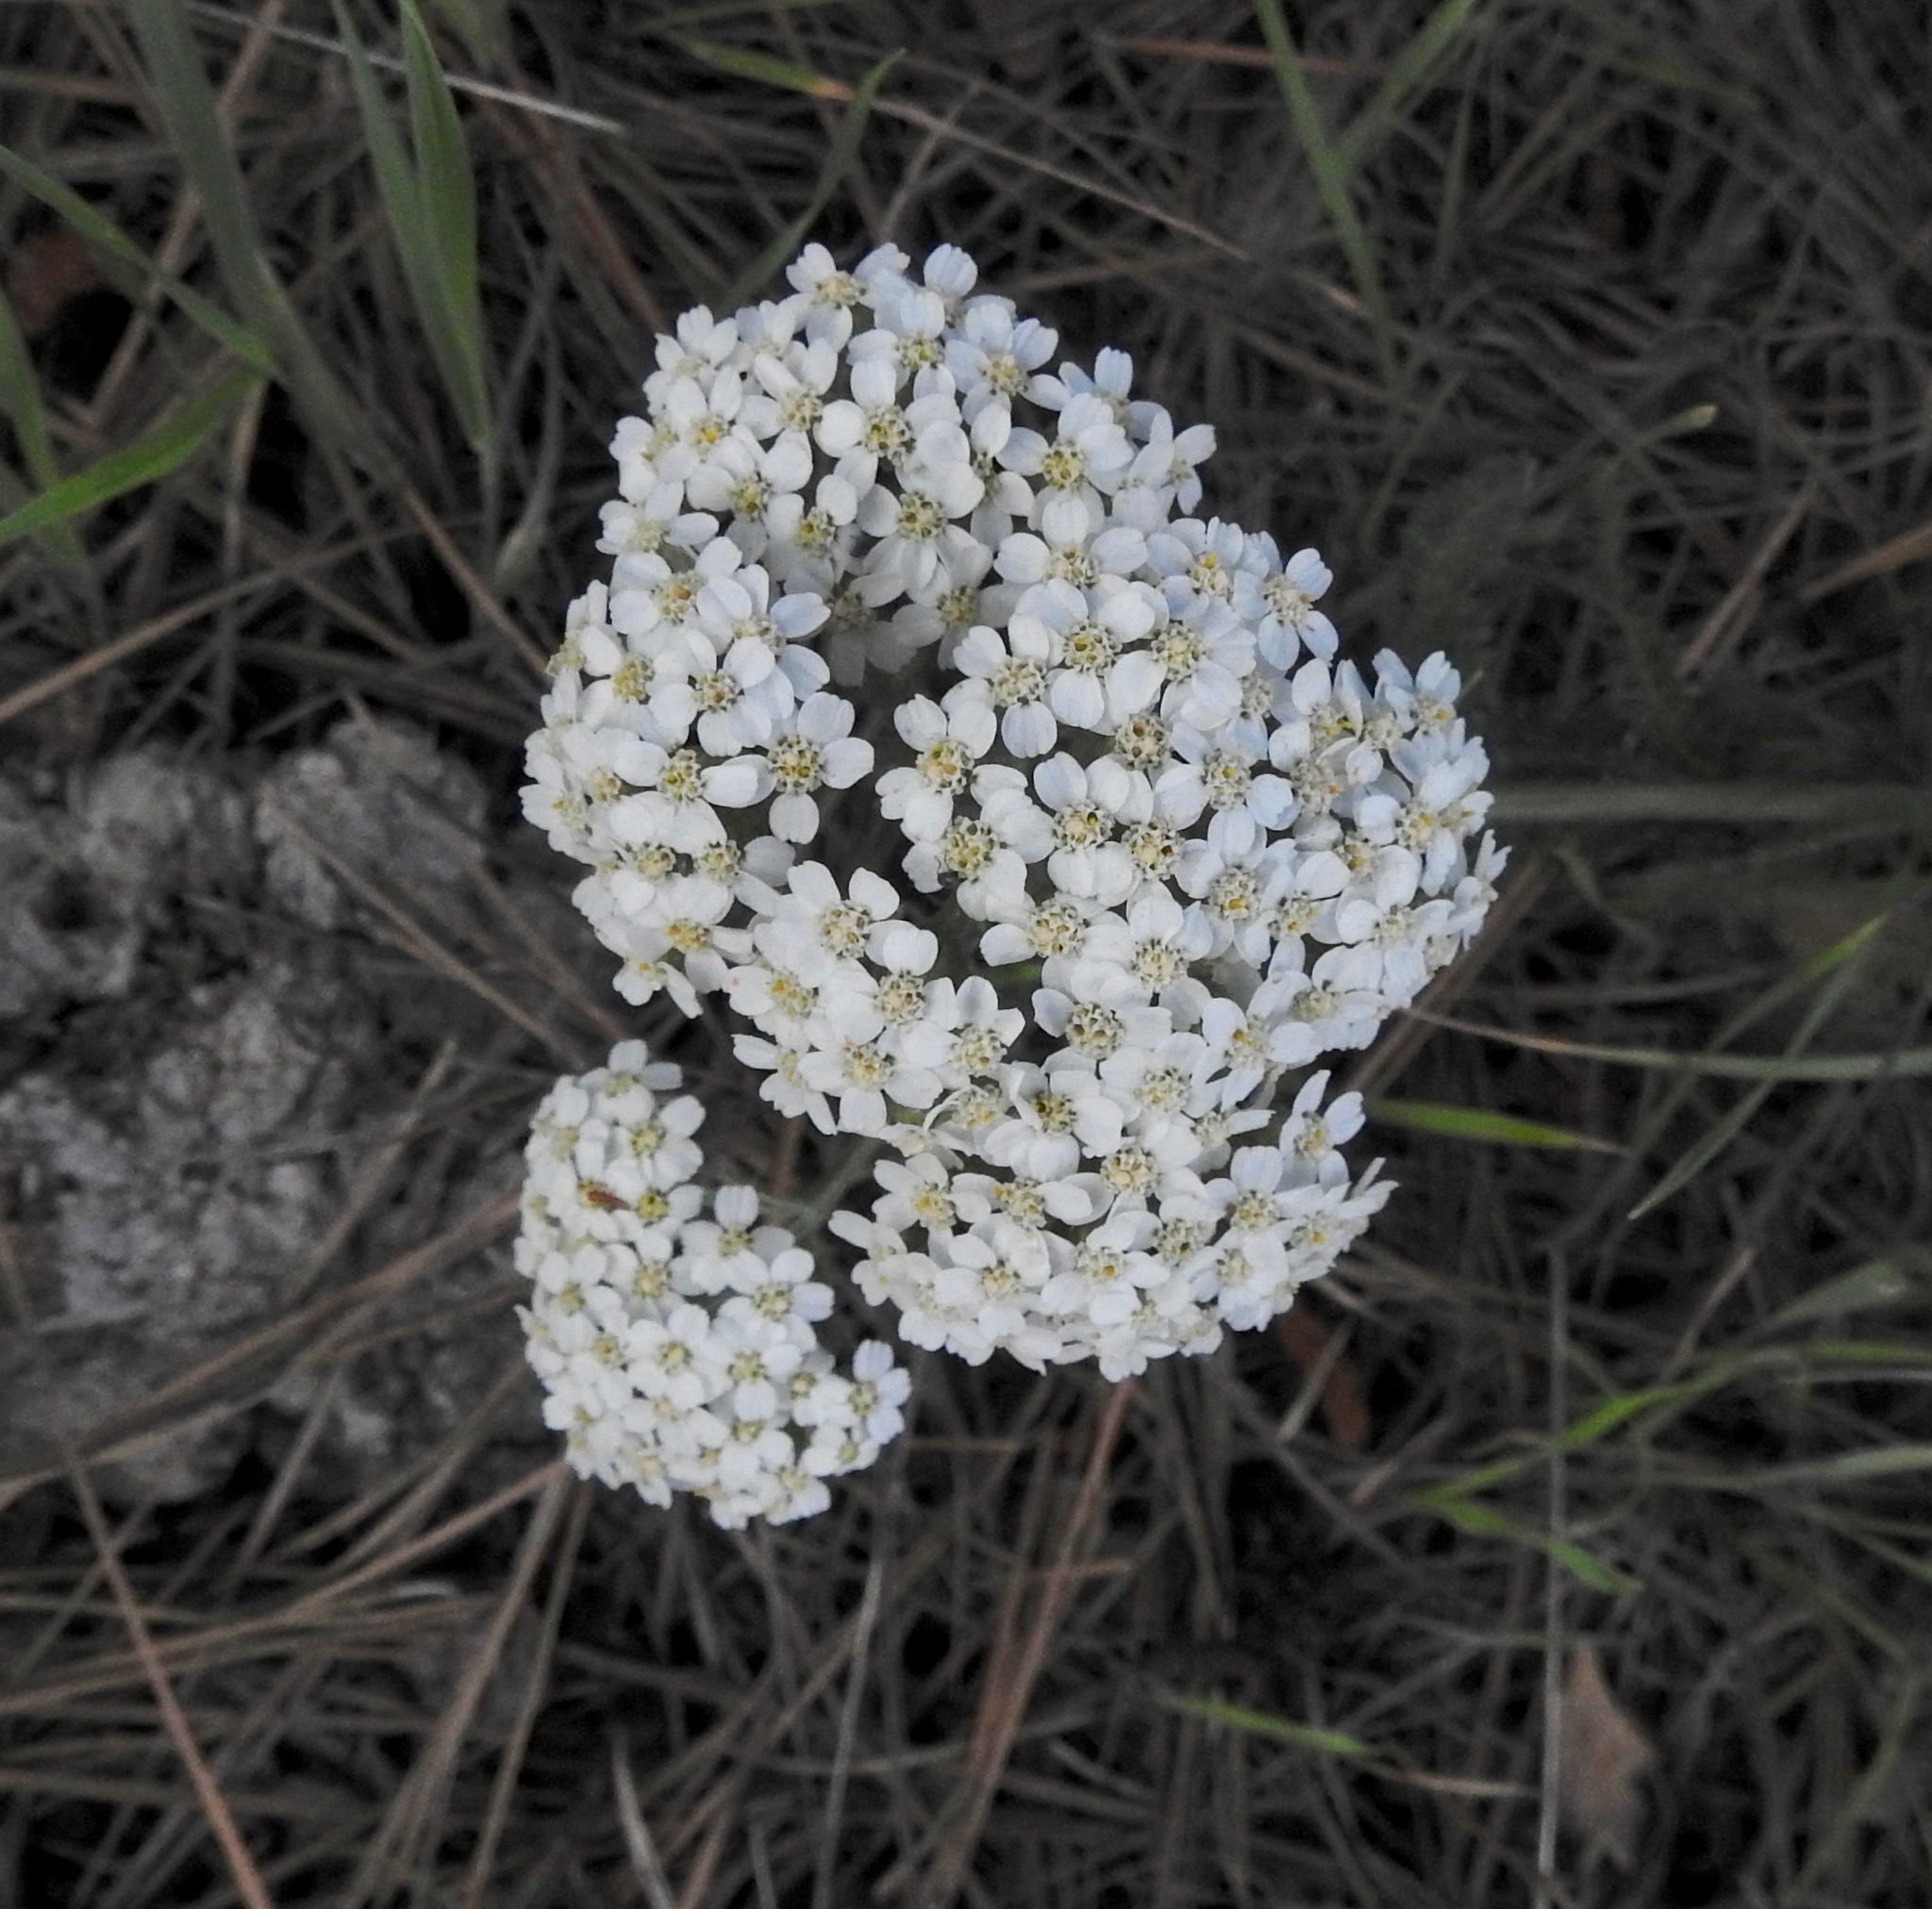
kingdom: Plantae
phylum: Tracheophyta
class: Magnoliopsida
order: Asterales
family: Asteraceae
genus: Achillea
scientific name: Achillea millefolium
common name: Yarrow
